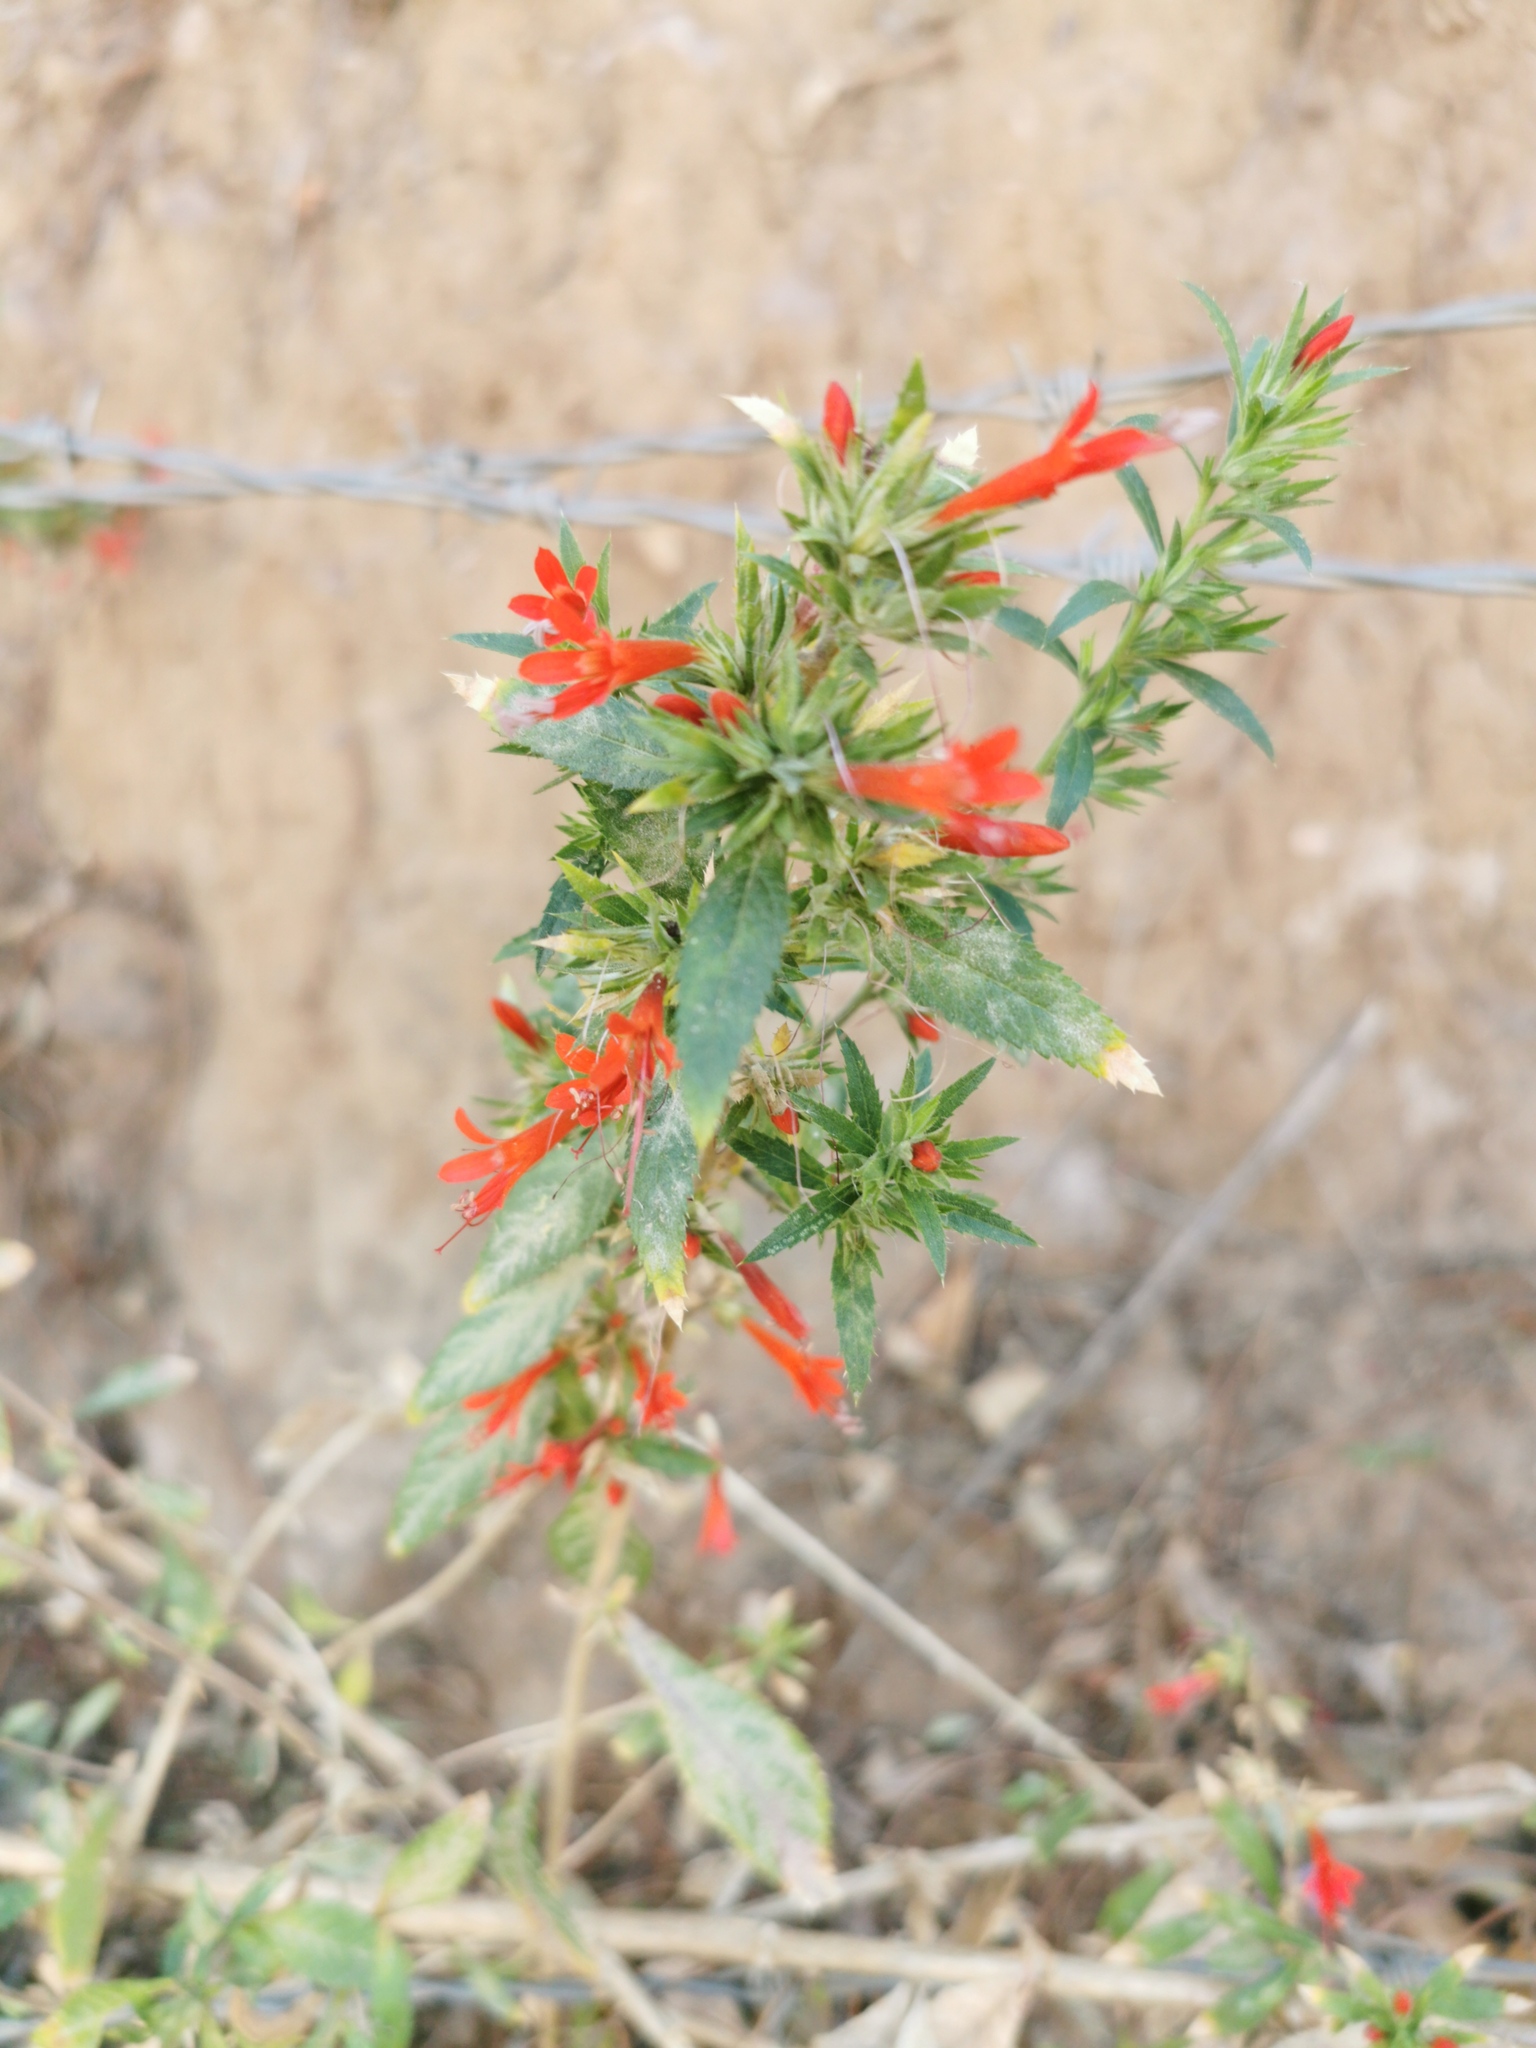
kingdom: Plantae
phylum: Tracheophyta
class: Magnoliopsida
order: Ericales
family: Polemoniaceae
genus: Loeselia
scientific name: Loeselia mexicana
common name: Mexican false calico
